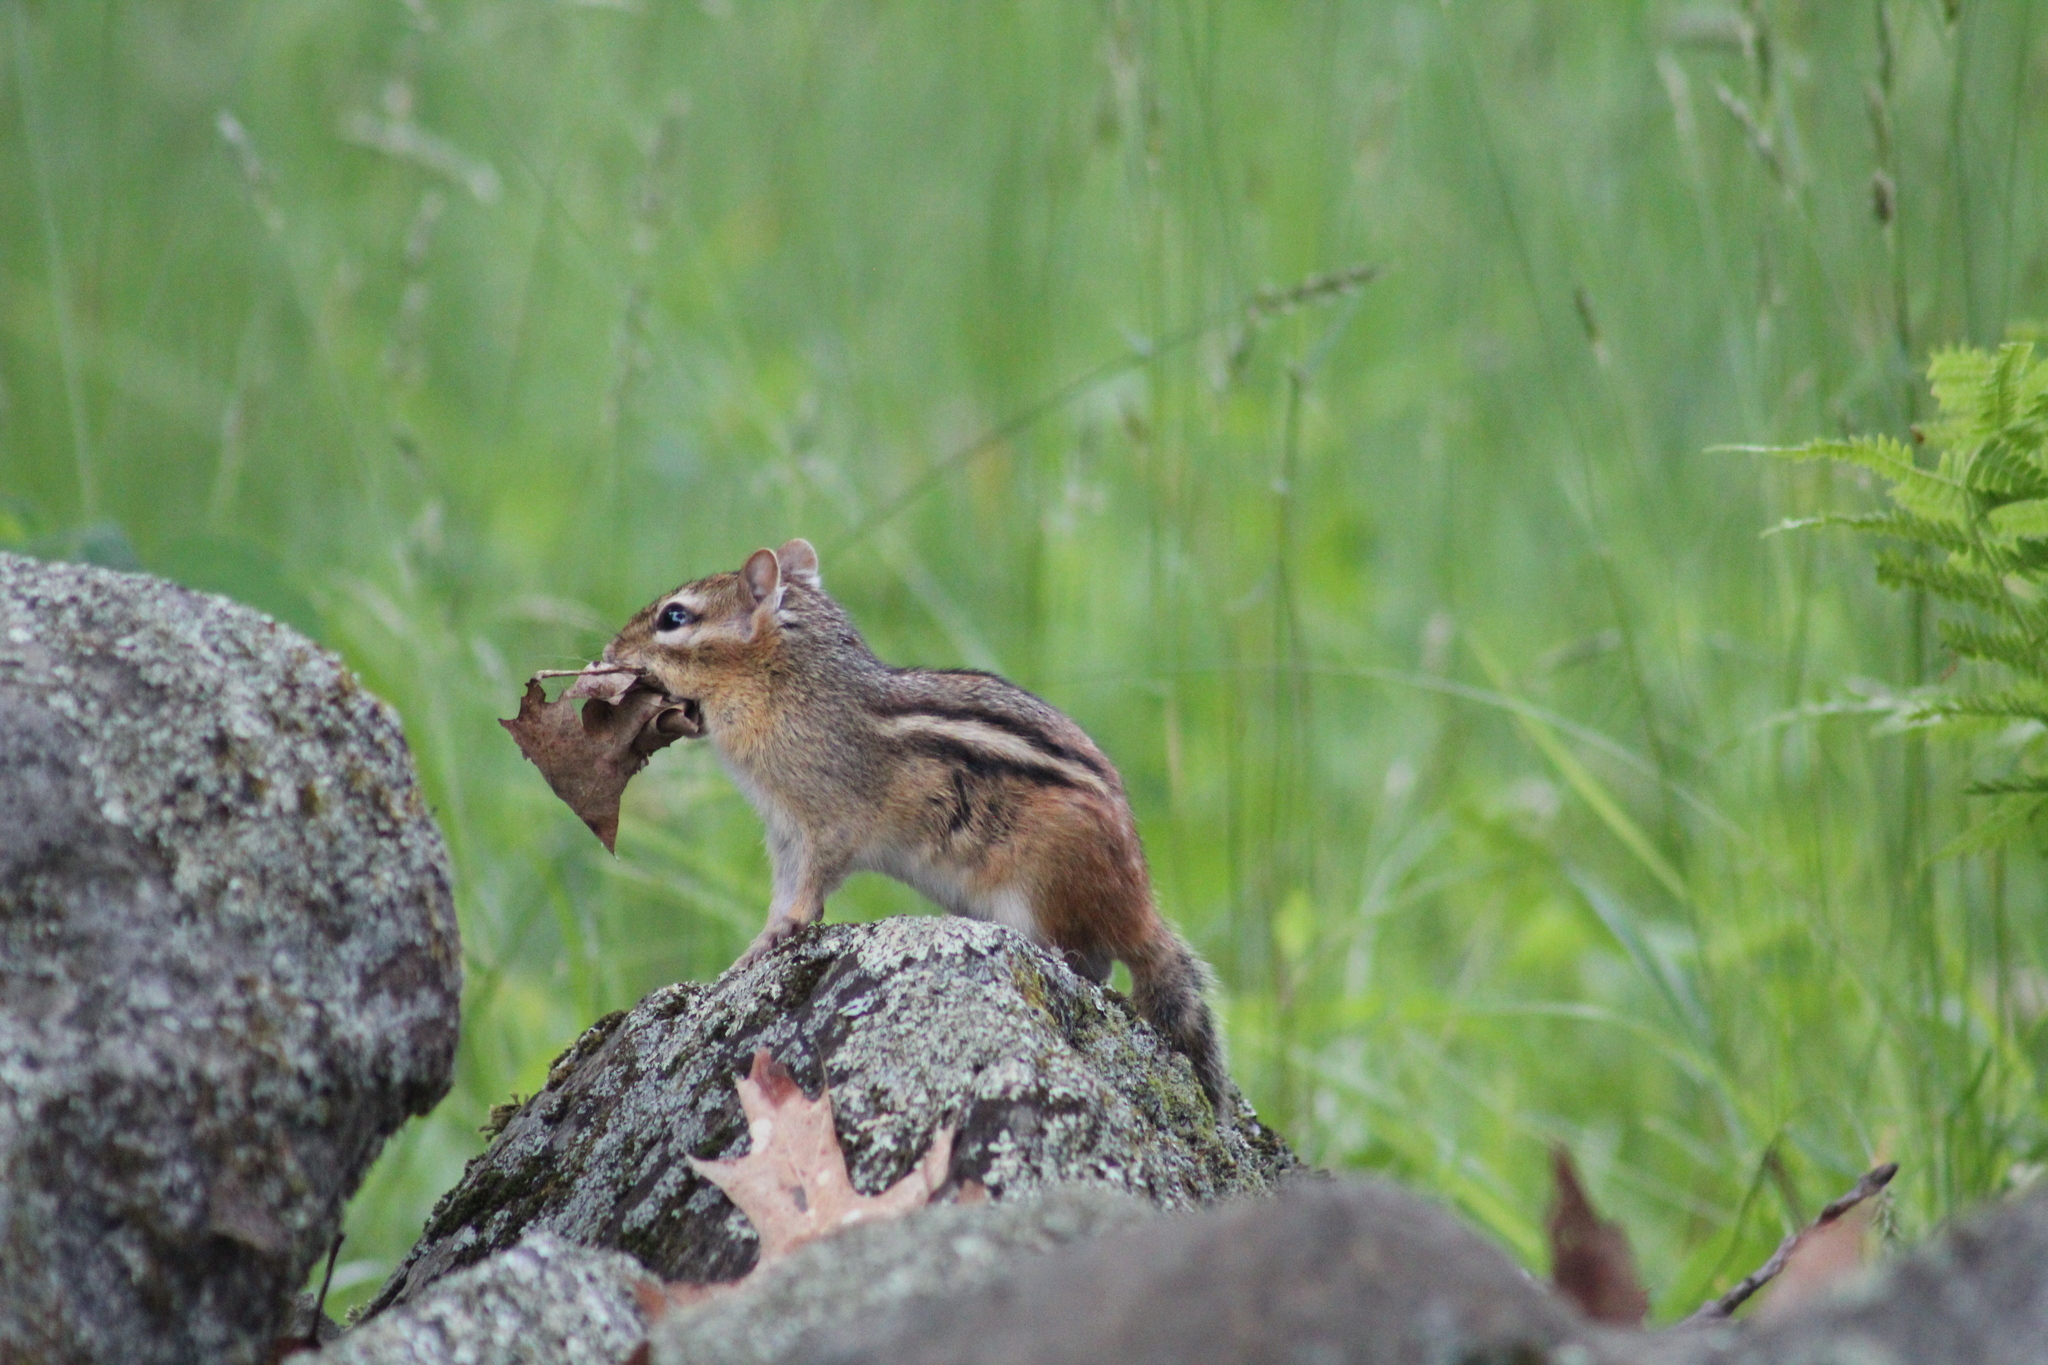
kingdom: Animalia
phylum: Chordata
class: Mammalia
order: Rodentia
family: Sciuridae
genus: Tamias
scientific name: Tamias striatus
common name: Eastern chipmunk
